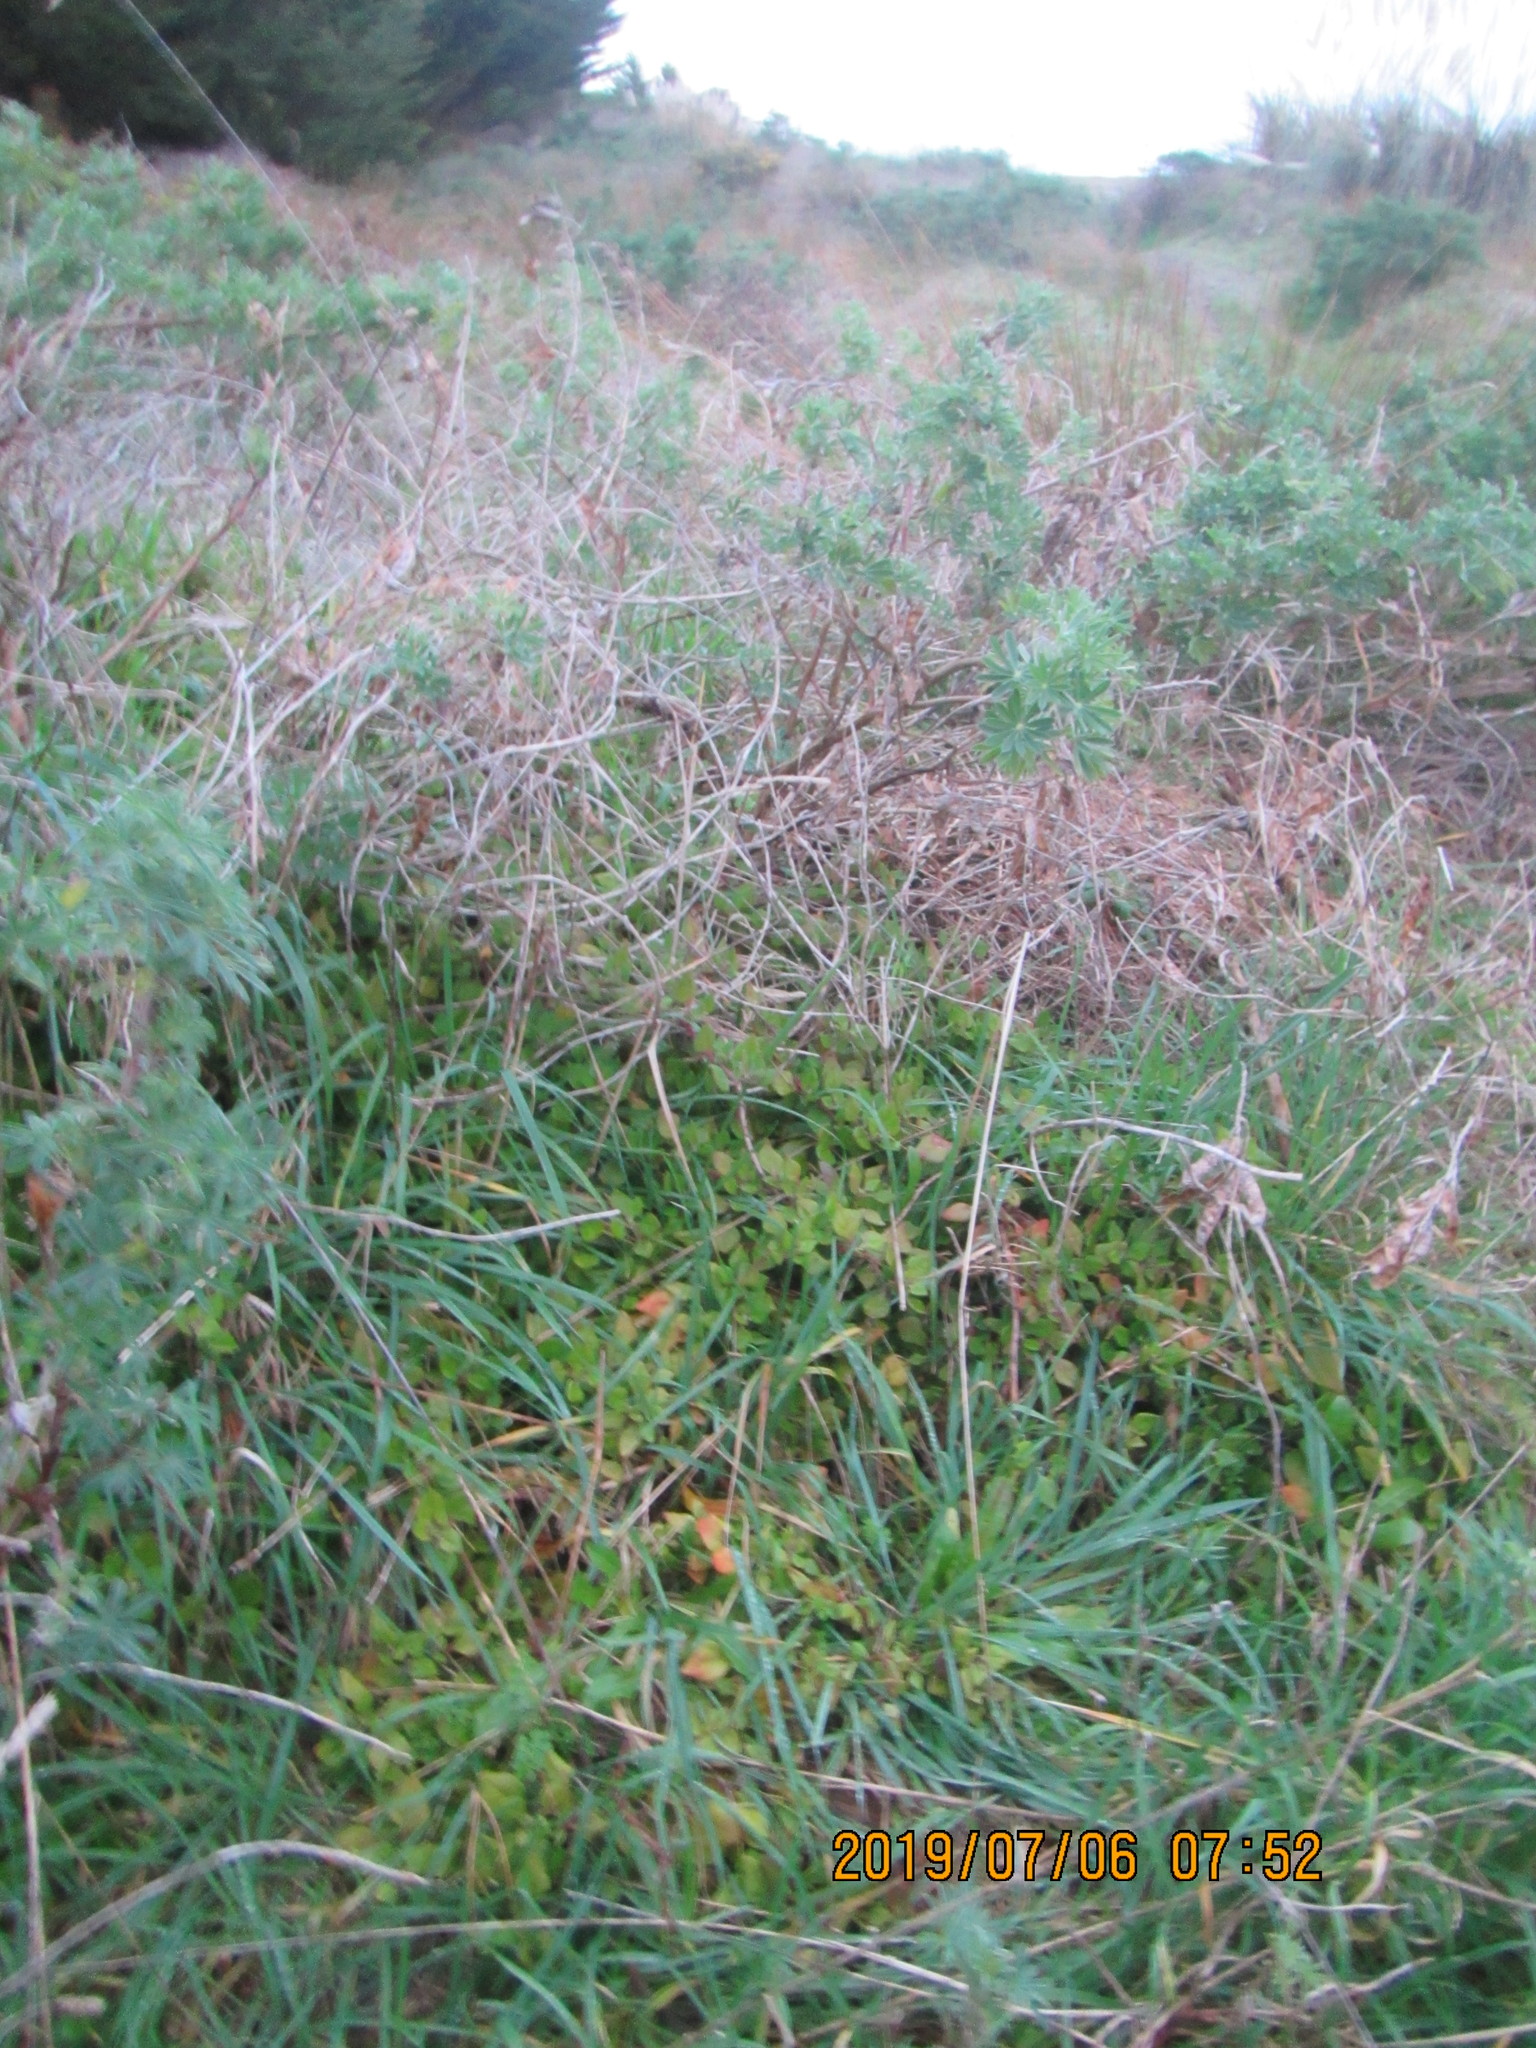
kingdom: Plantae
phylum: Tracheophyta
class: Magnoliopsida
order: Caryophyllales
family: Aizoaceae
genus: Tetragonia
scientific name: Tetragonia implexicoma
